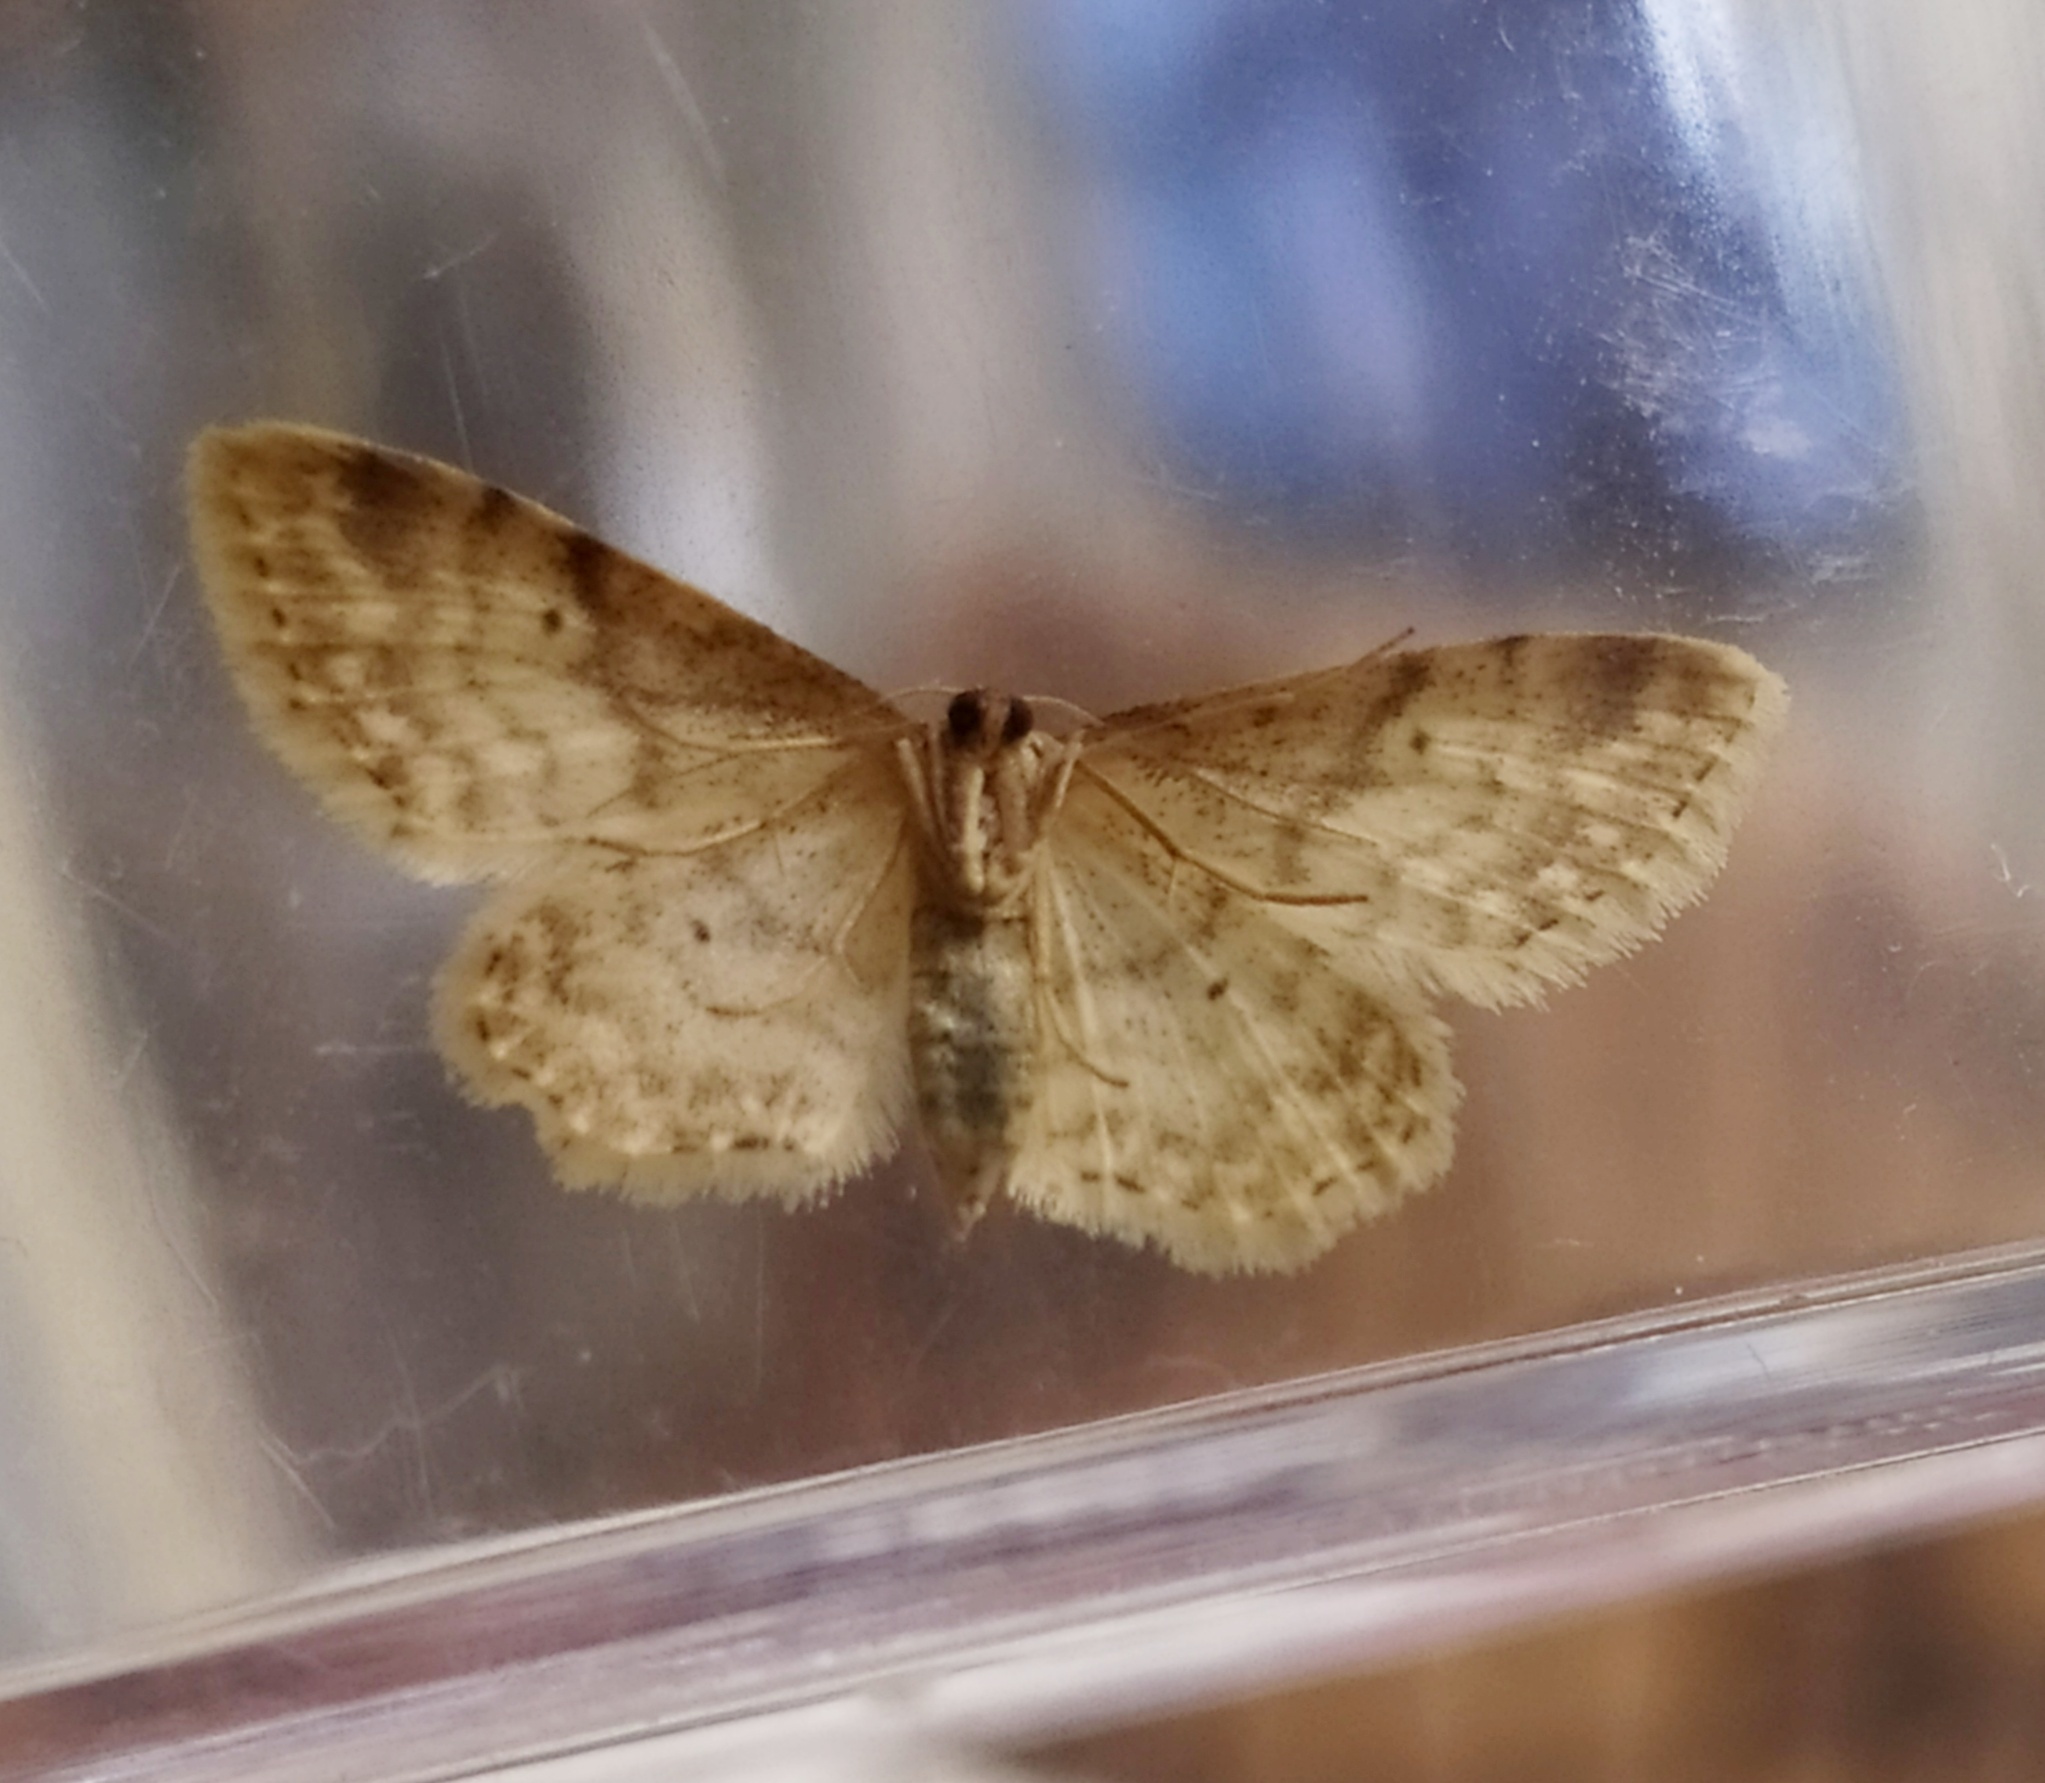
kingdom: Animalia
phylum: Arthropoda
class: Insecta
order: Lepidoptera
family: Geometridae
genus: Idaea
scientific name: Idaea fuscovenosa
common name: Dwarf cream wave
